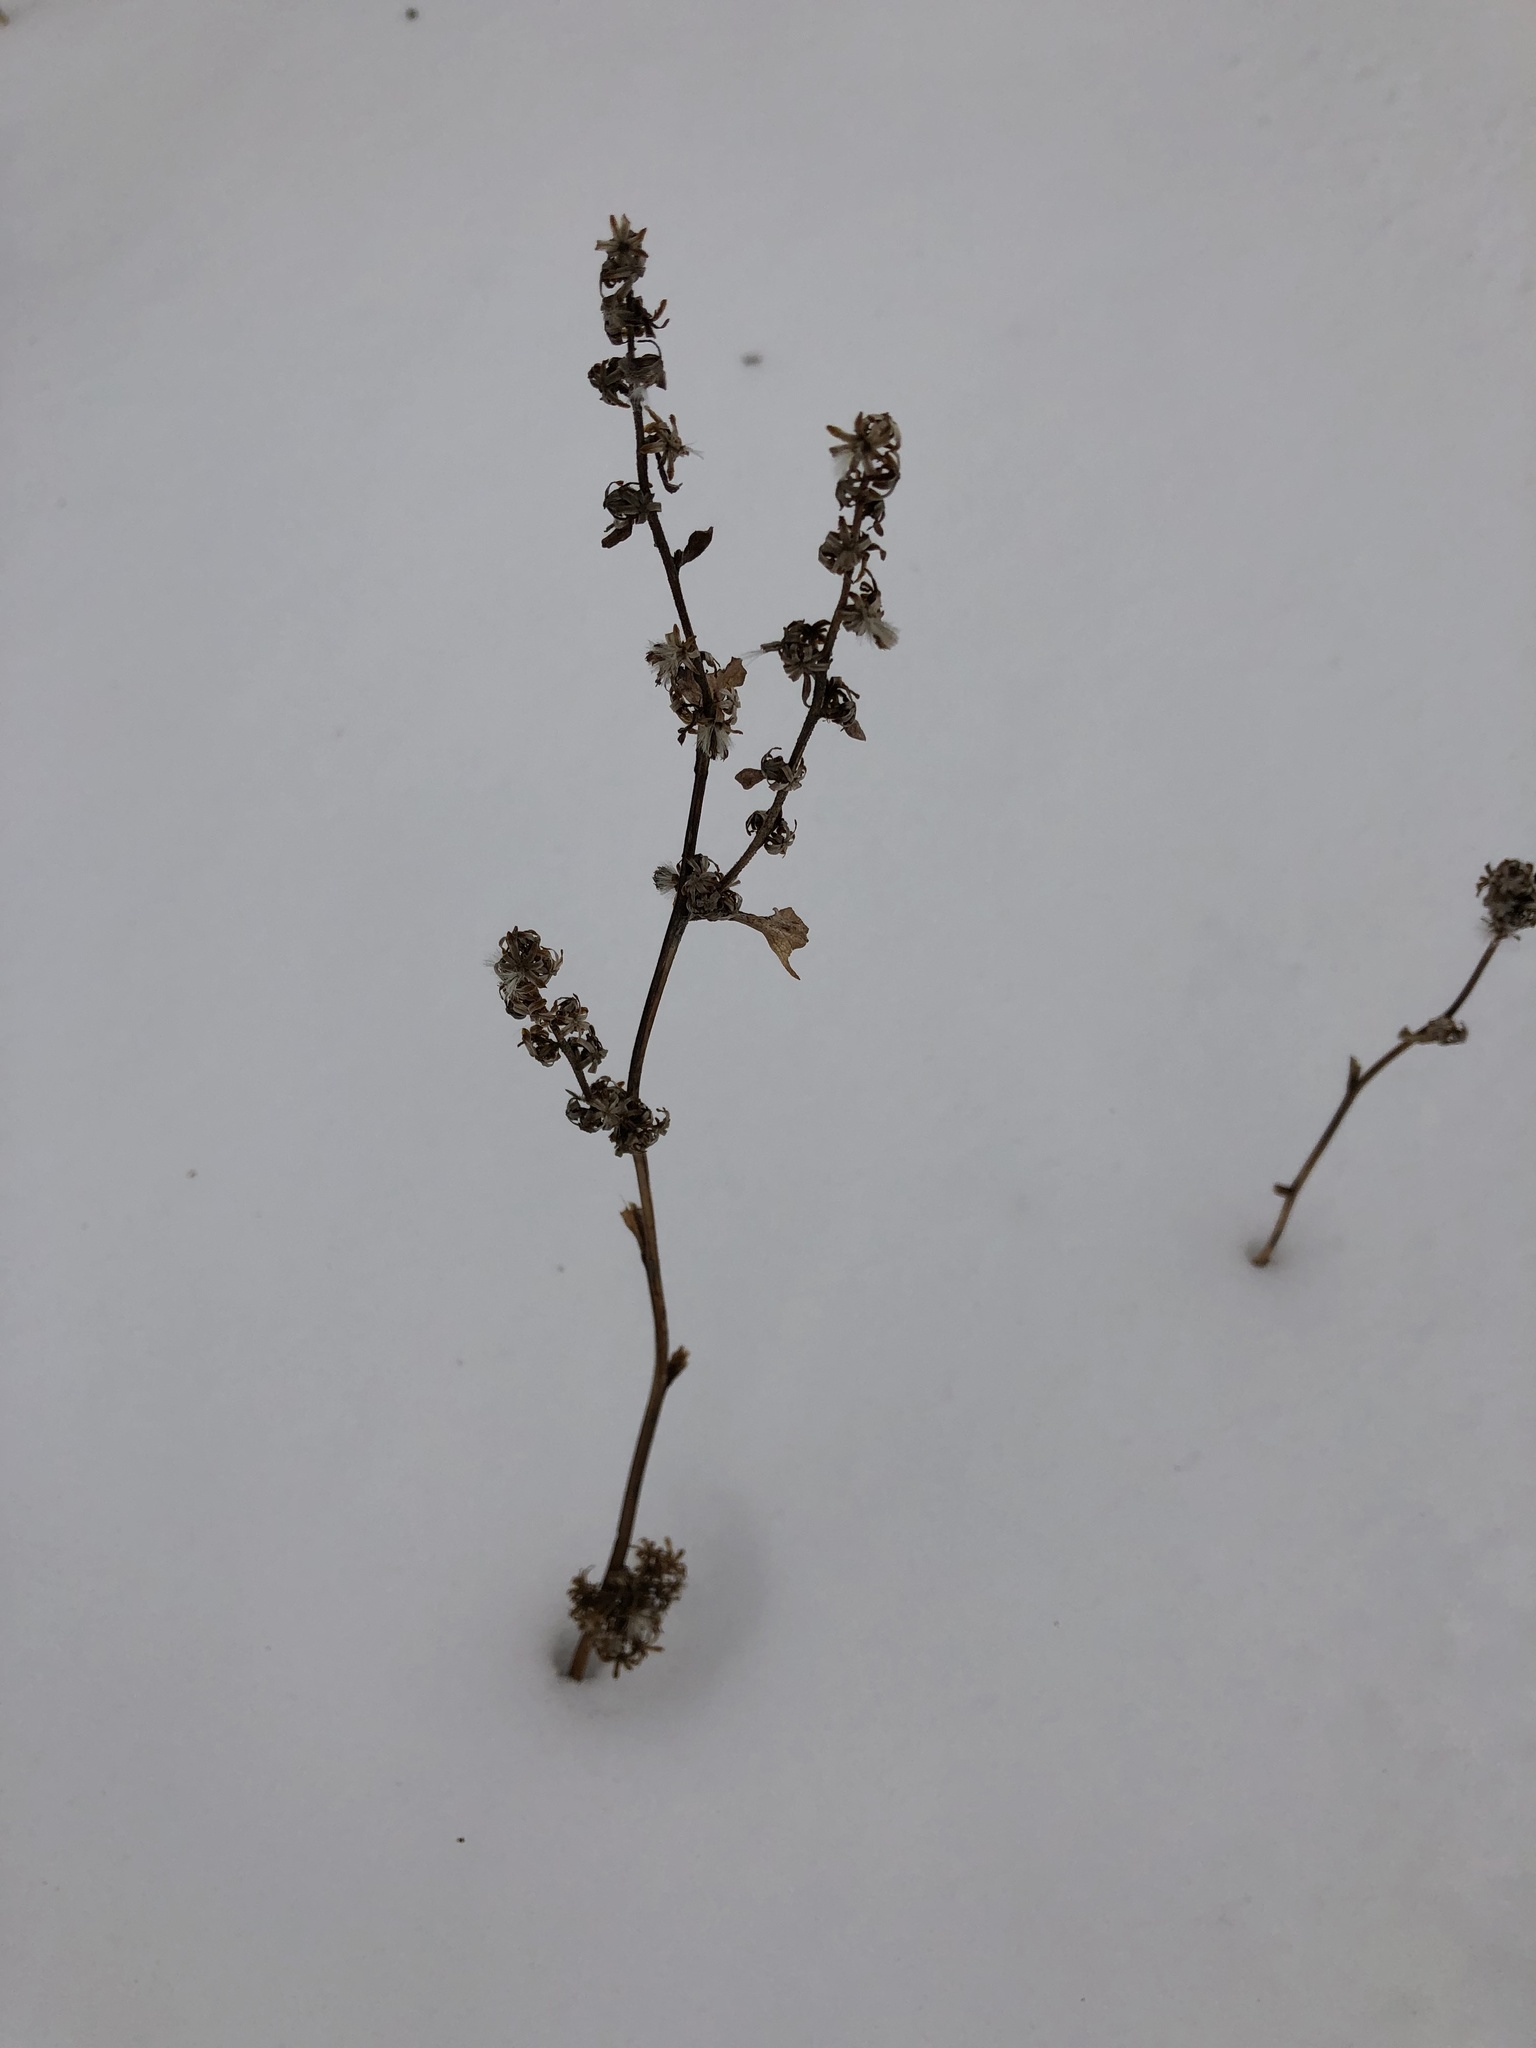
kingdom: Plantae
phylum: Tracheophyta
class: Magnoliopsida
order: Asterales
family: Asteraceae
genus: Solidago
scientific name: Solidago flexicaulis
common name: Zig-zag goldenrod
